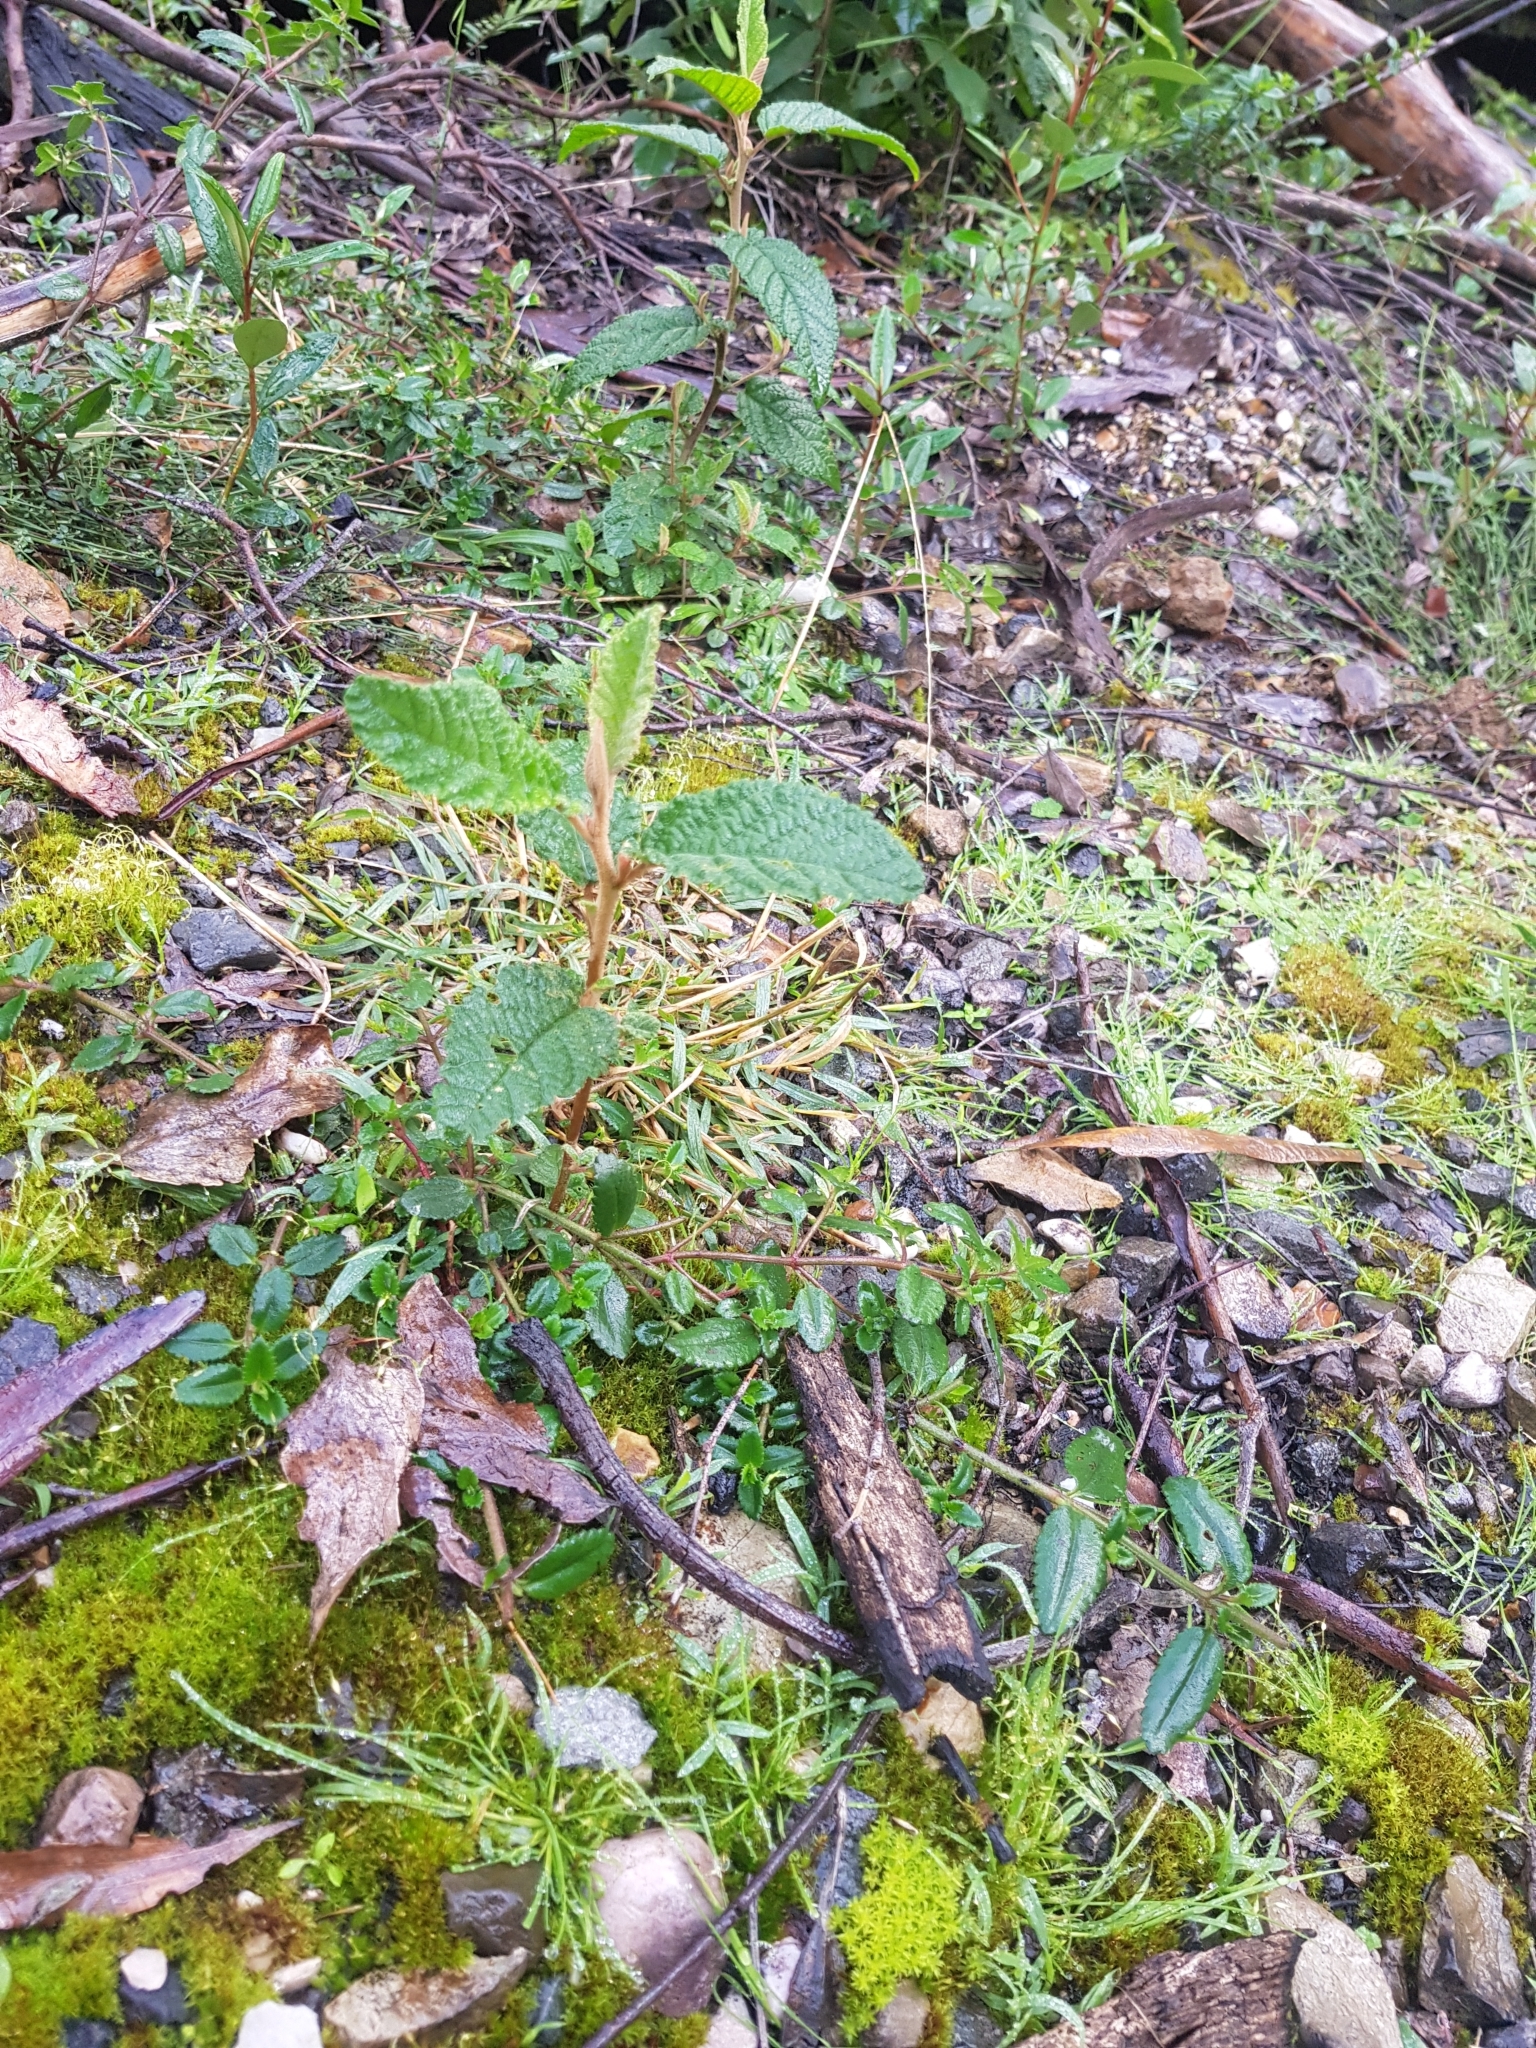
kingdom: Plantae
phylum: Tracheophyta
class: Magnoliopsida
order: Rosales
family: Rhamnaceae
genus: Pomaderris
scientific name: Pomaderris apetala
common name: Hazel pomaderris
